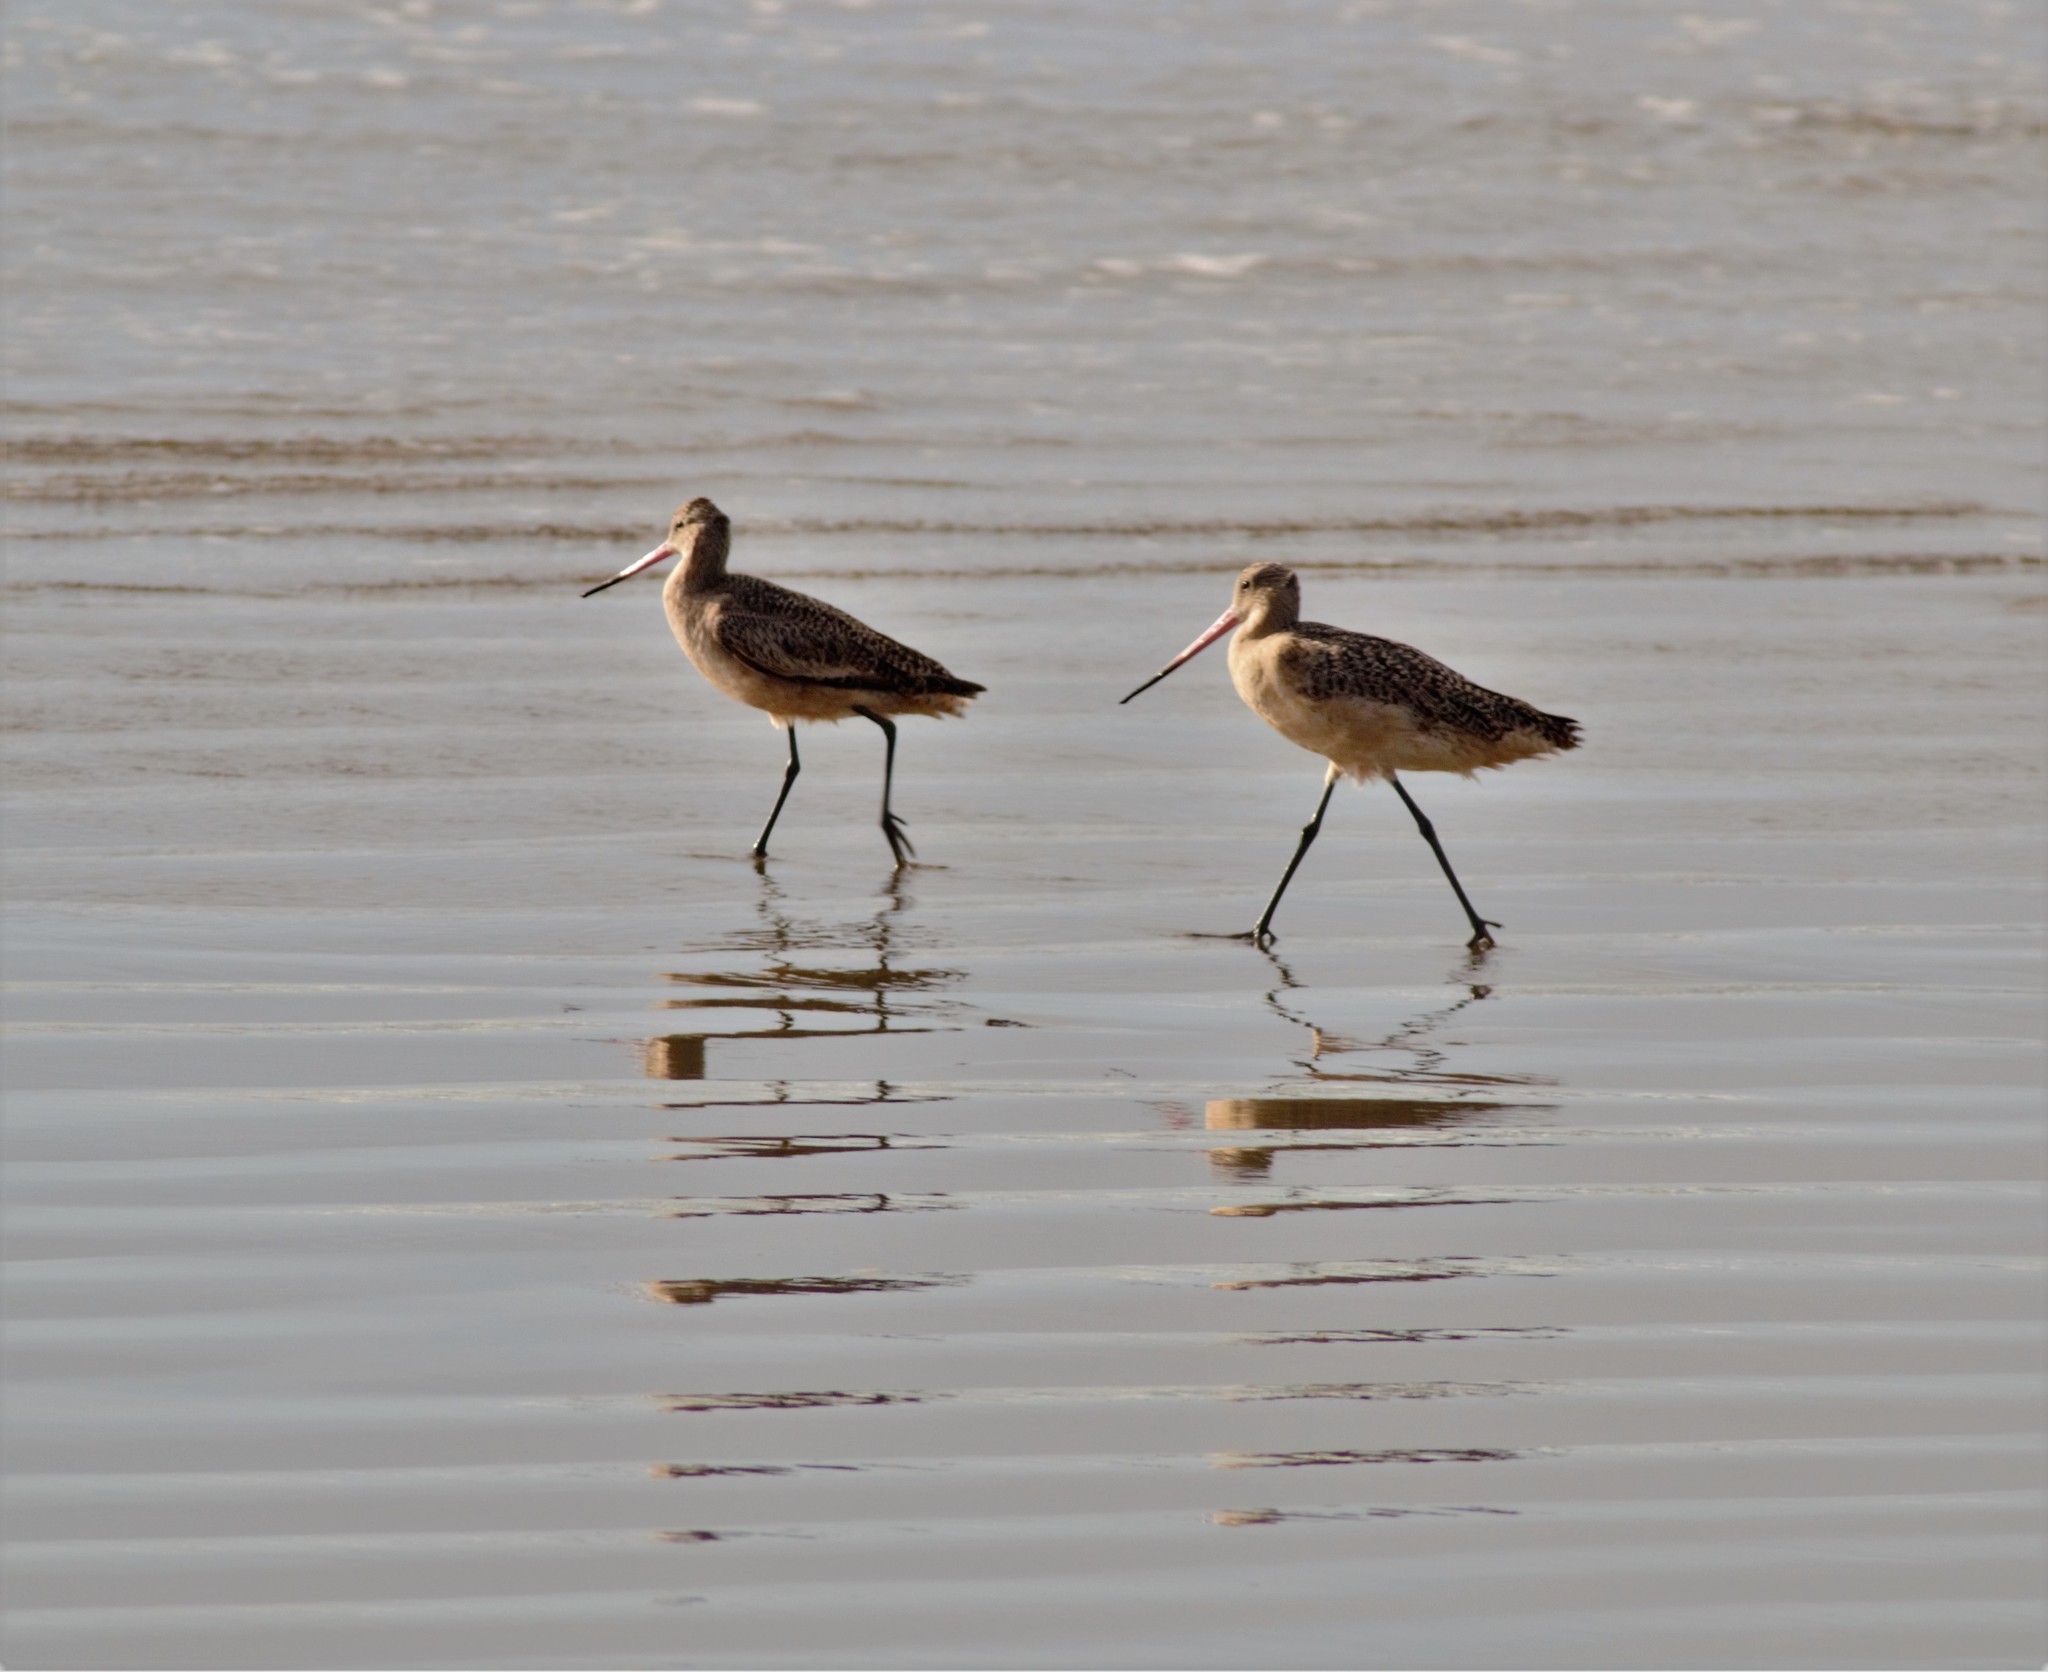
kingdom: Animalia
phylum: Chordata
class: Aves
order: Charadriiformes
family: Scolopacidae
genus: Limosa
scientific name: Limosa fedoa
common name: Marbled godwit
